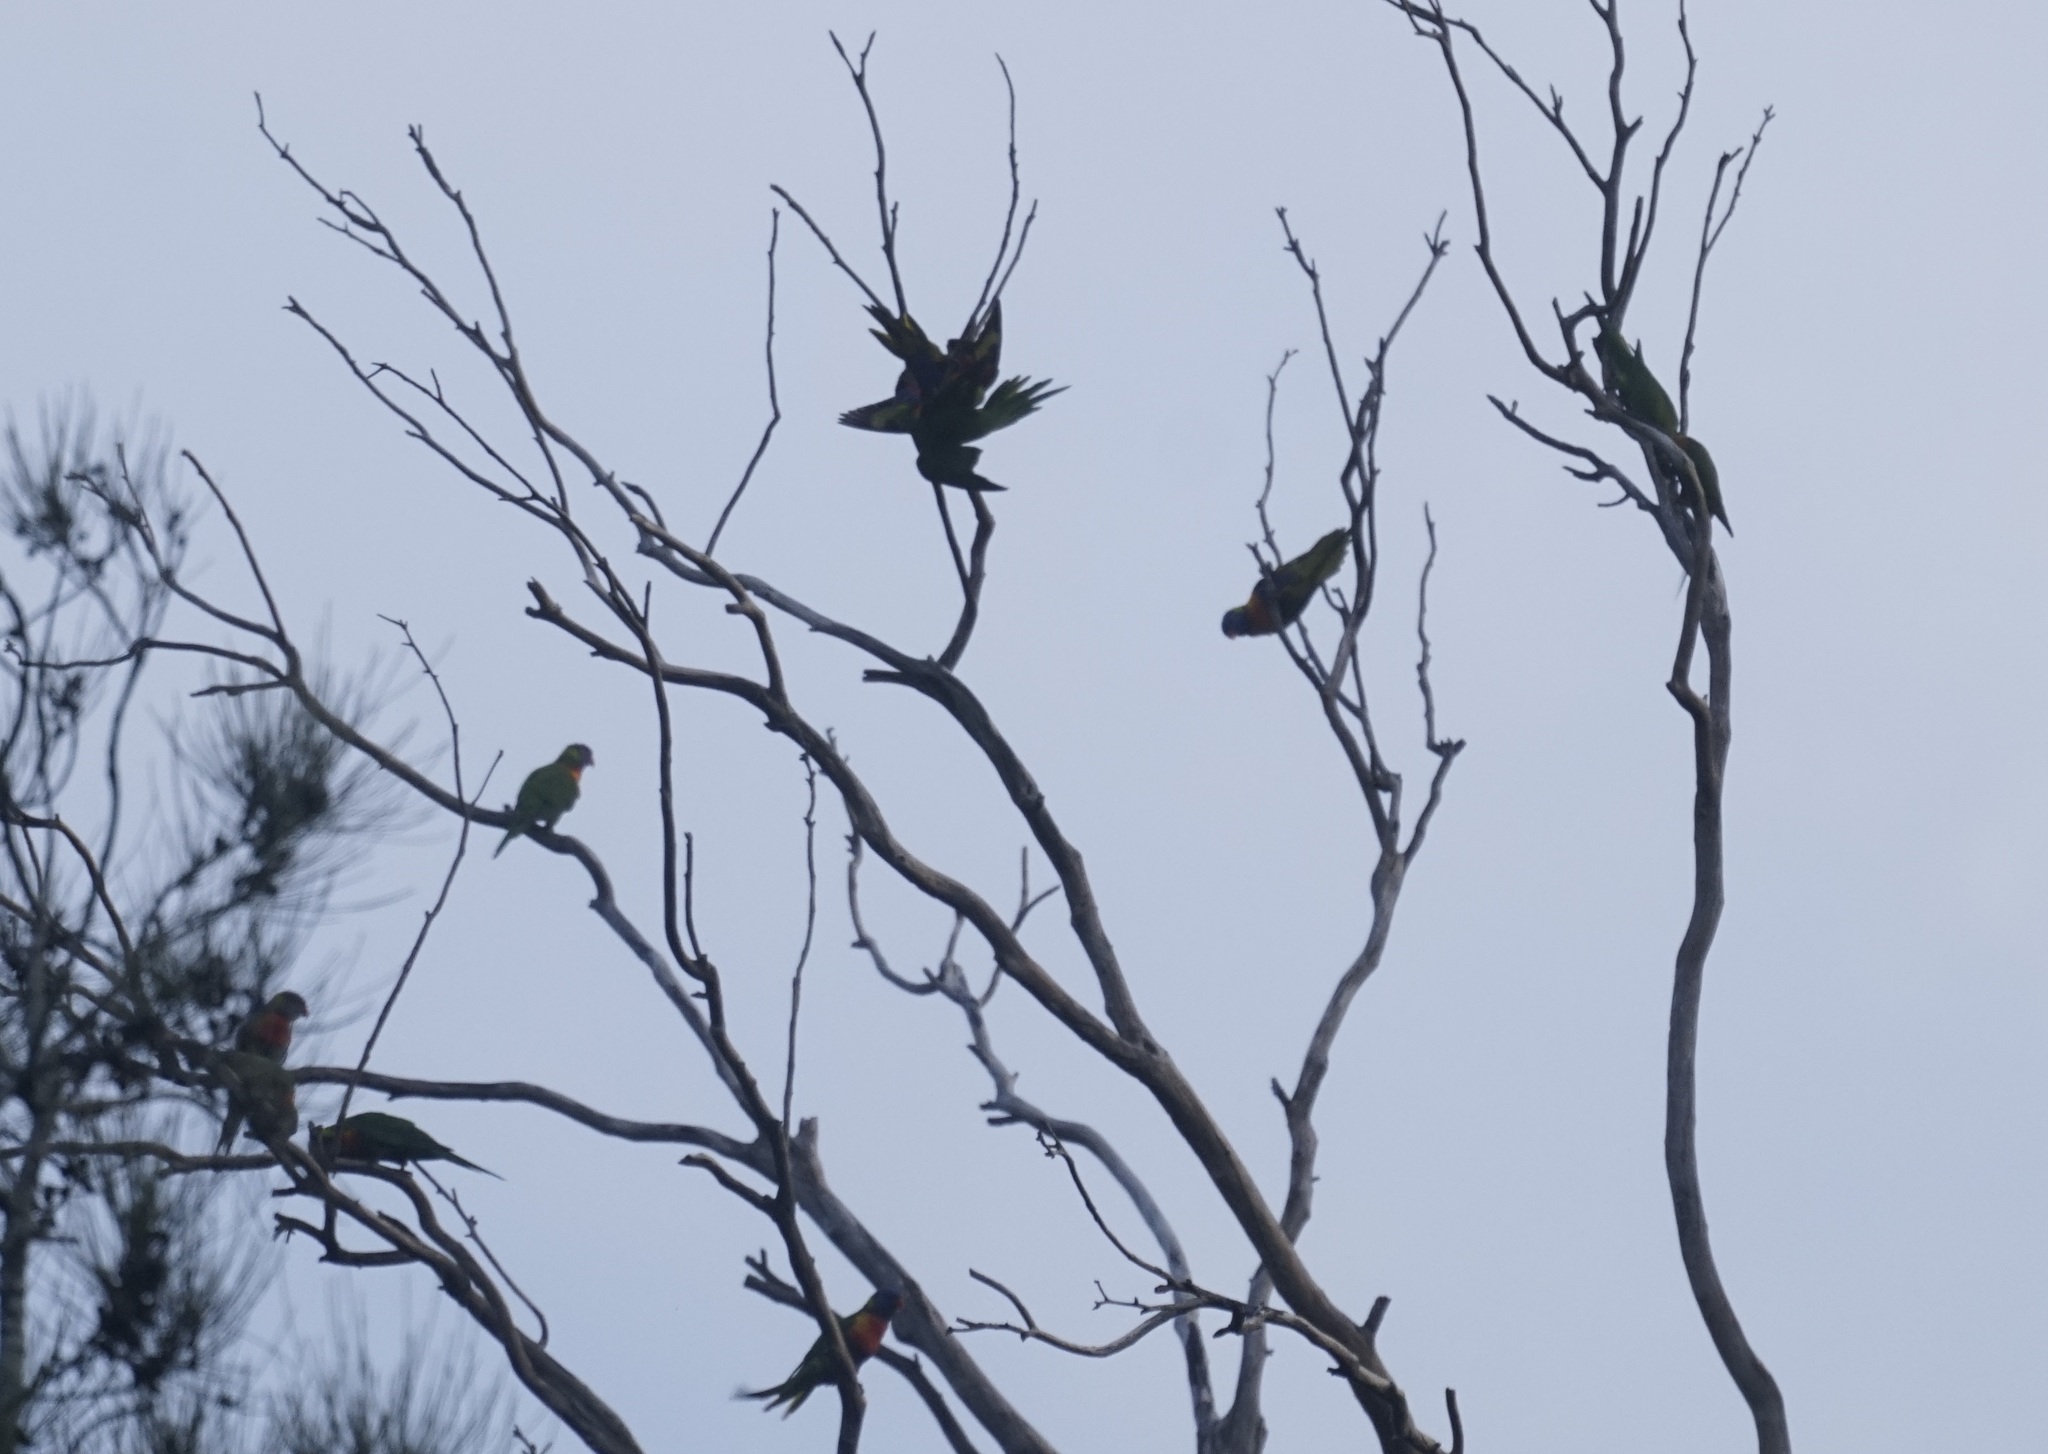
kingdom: Animalia
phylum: Chordata
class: Aves
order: Psittaciformes
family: Psittacidae
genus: Trichoglossus
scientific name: Trichoglossus haematodus
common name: Coconut lorikeet
